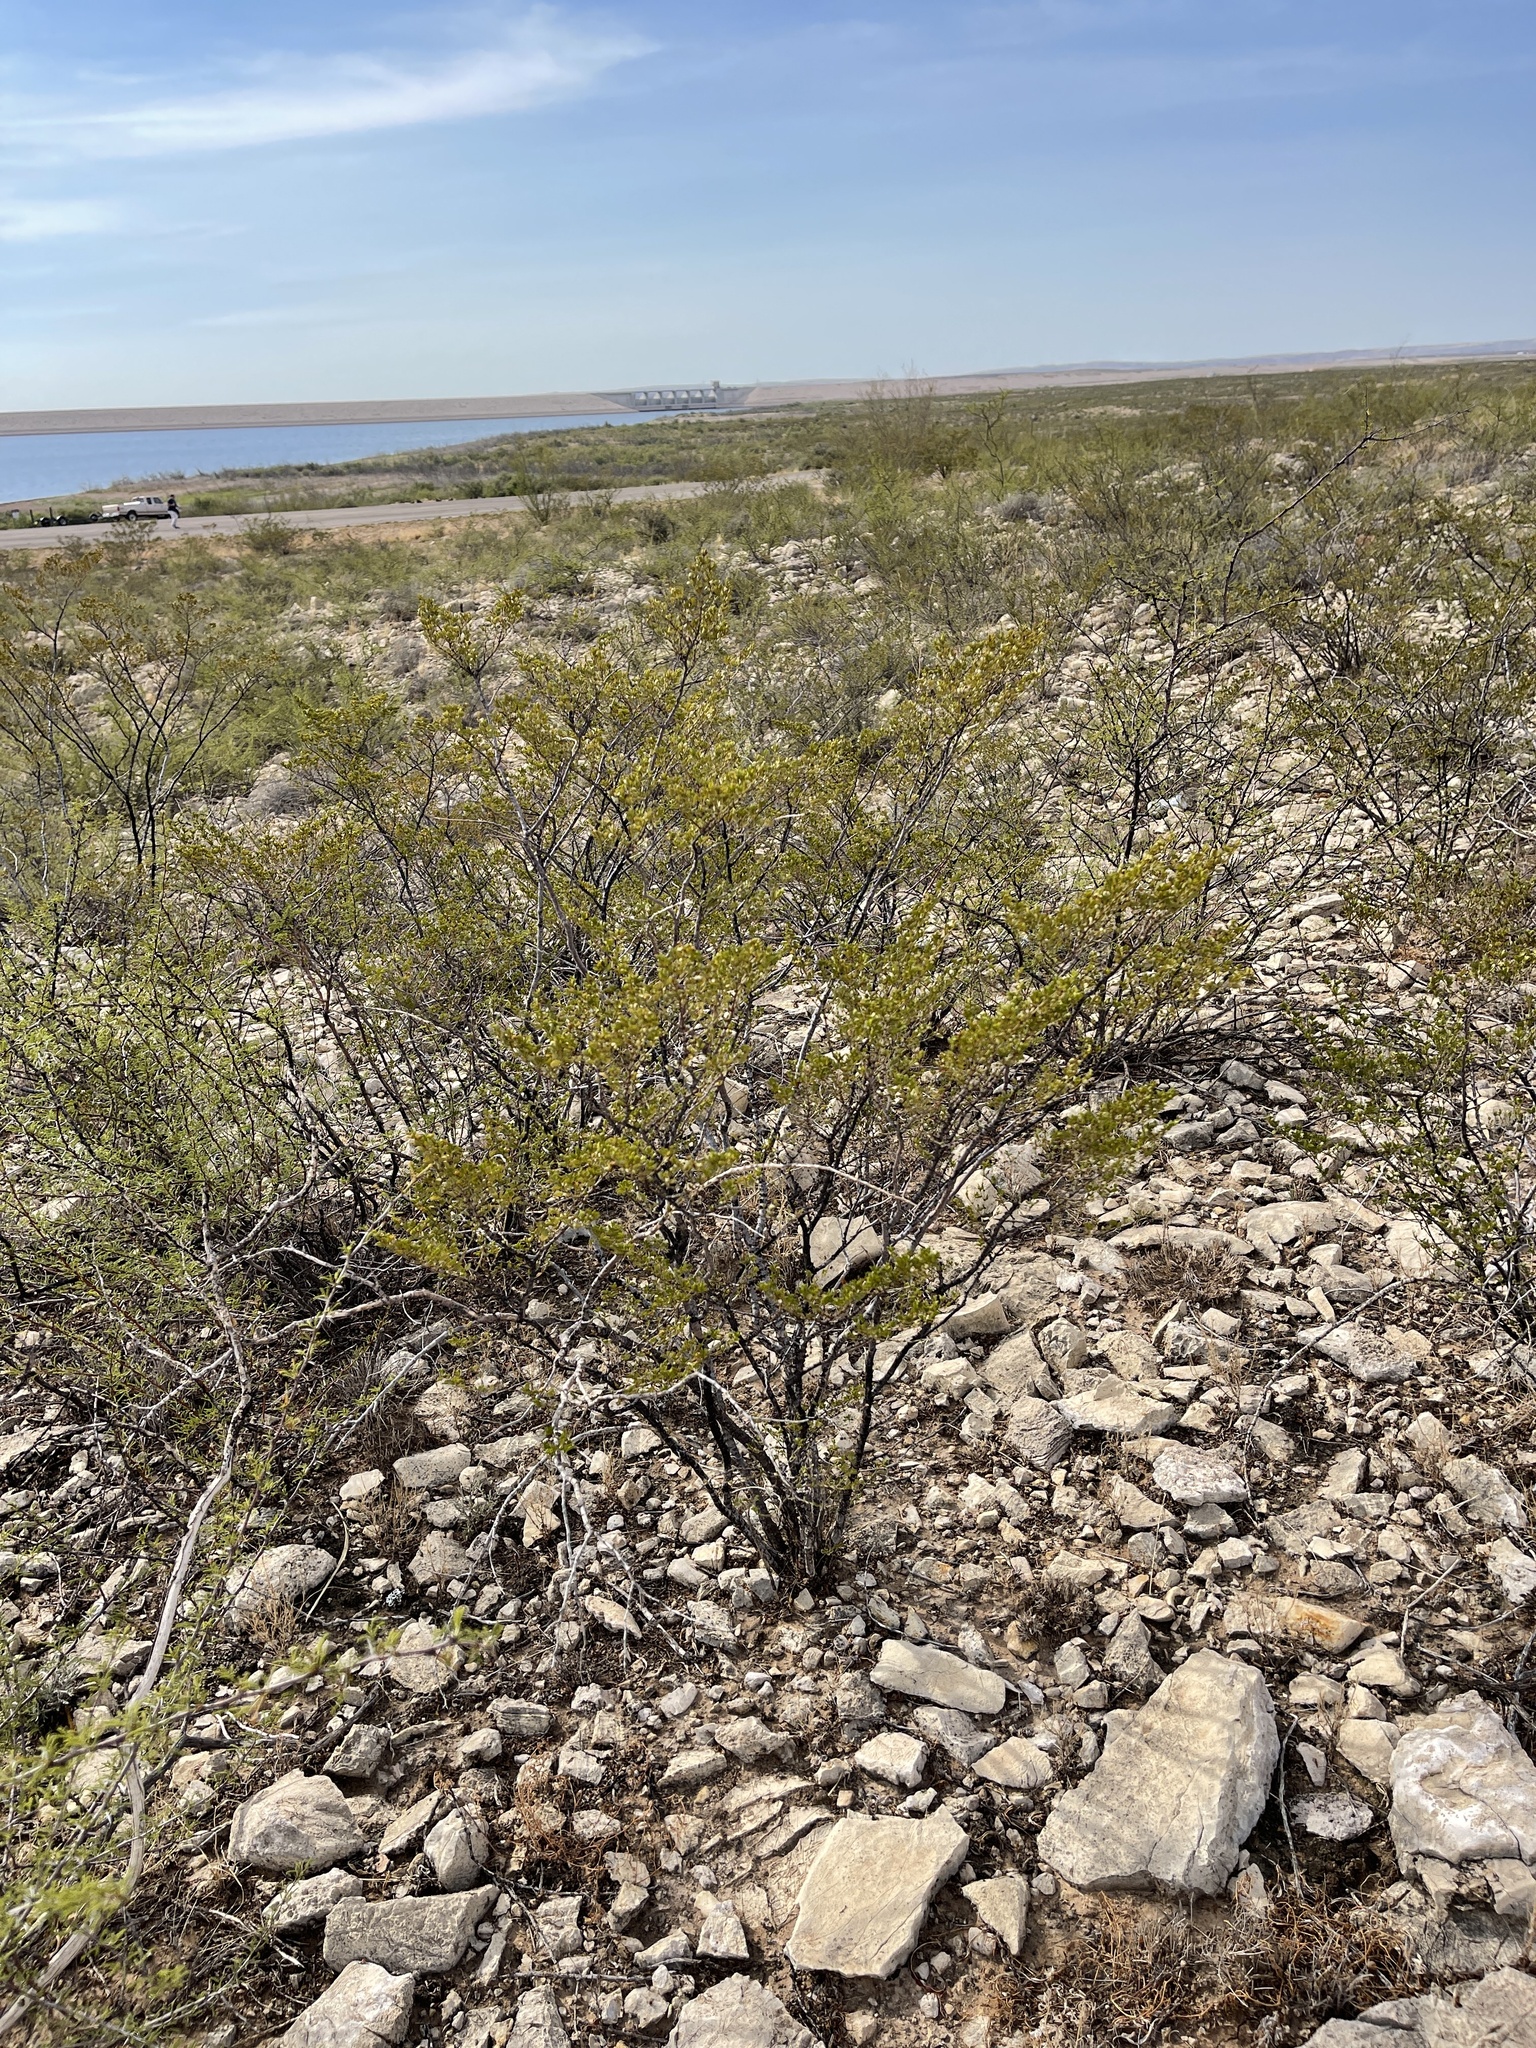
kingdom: Plantae
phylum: Tracheophyta
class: Magnoliopsida
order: Zygophyllales
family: Zygophyllaceae
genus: Larrea
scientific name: Larrea tridentata
